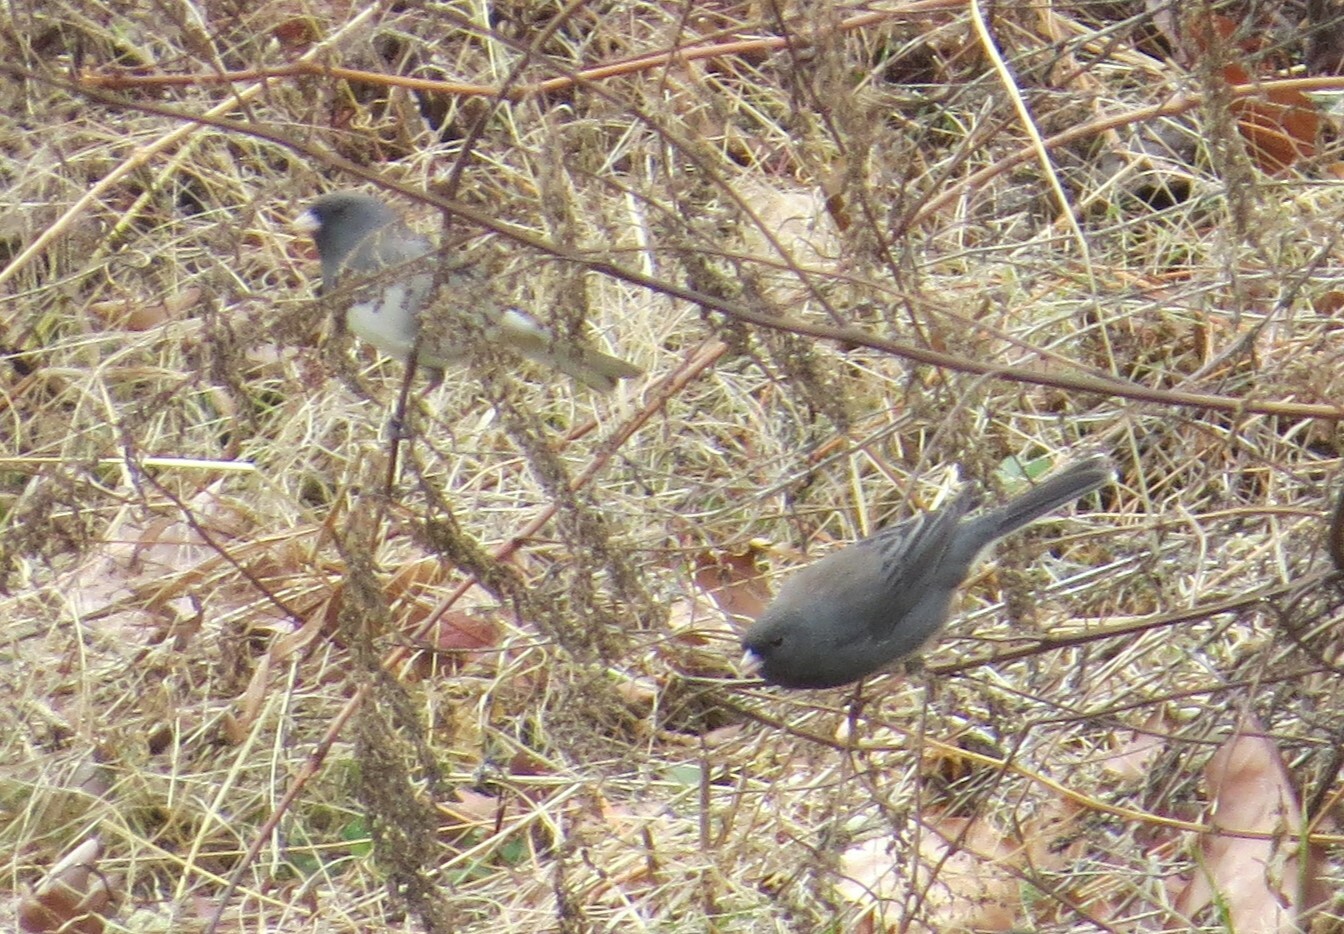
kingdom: Animalia
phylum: Chordata
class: Aves
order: Passeriformes
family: Passerellidae
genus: Junco
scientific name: Junco hyemalis
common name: Dark-eyed junco
